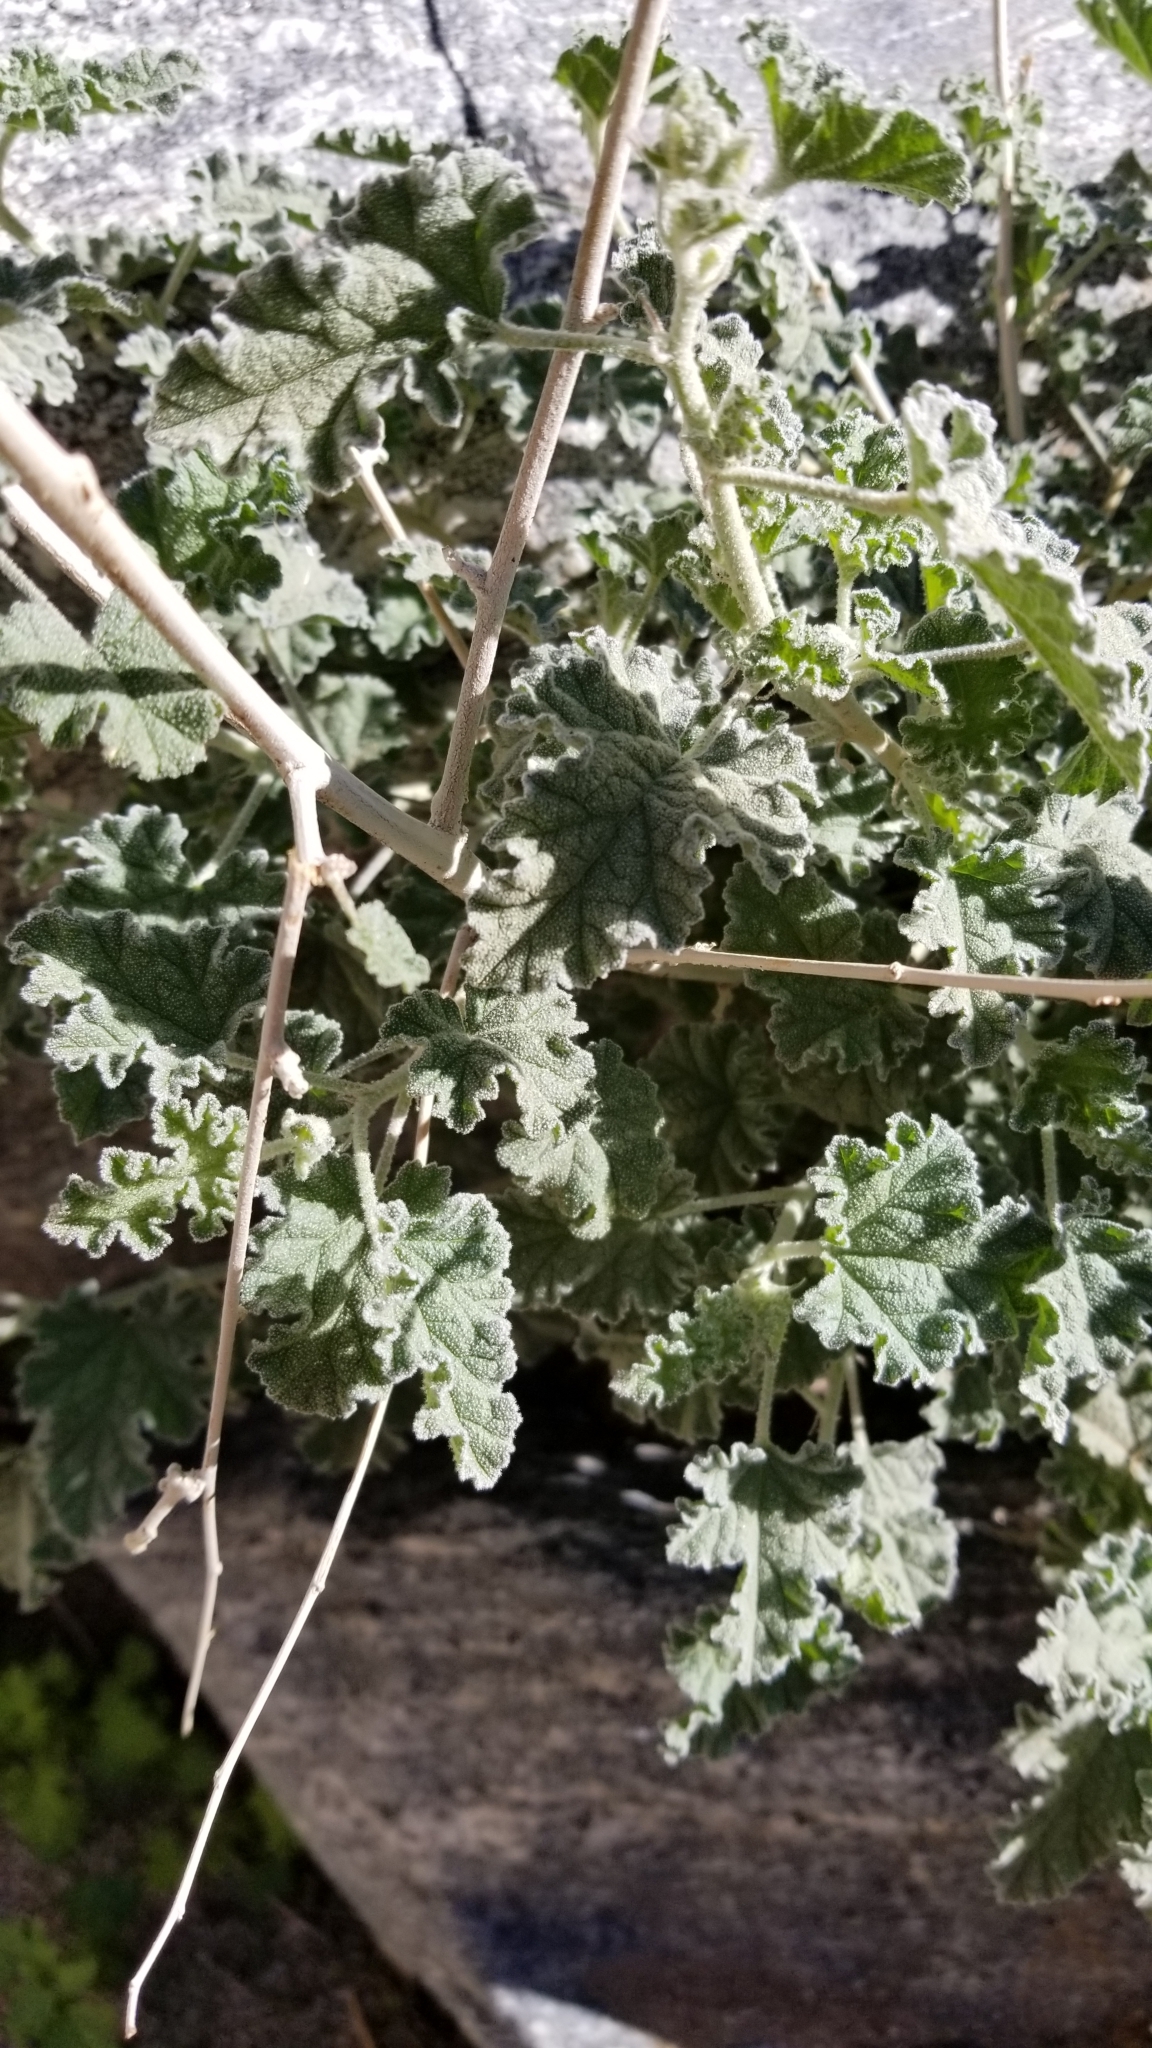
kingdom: Plantae
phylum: Tracheophyta
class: Magnoliopsida
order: Malvales
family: Malvaceae
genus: Sphaeralcea
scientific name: Sphaeralcea ambigua
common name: Apricot globe-mallow
